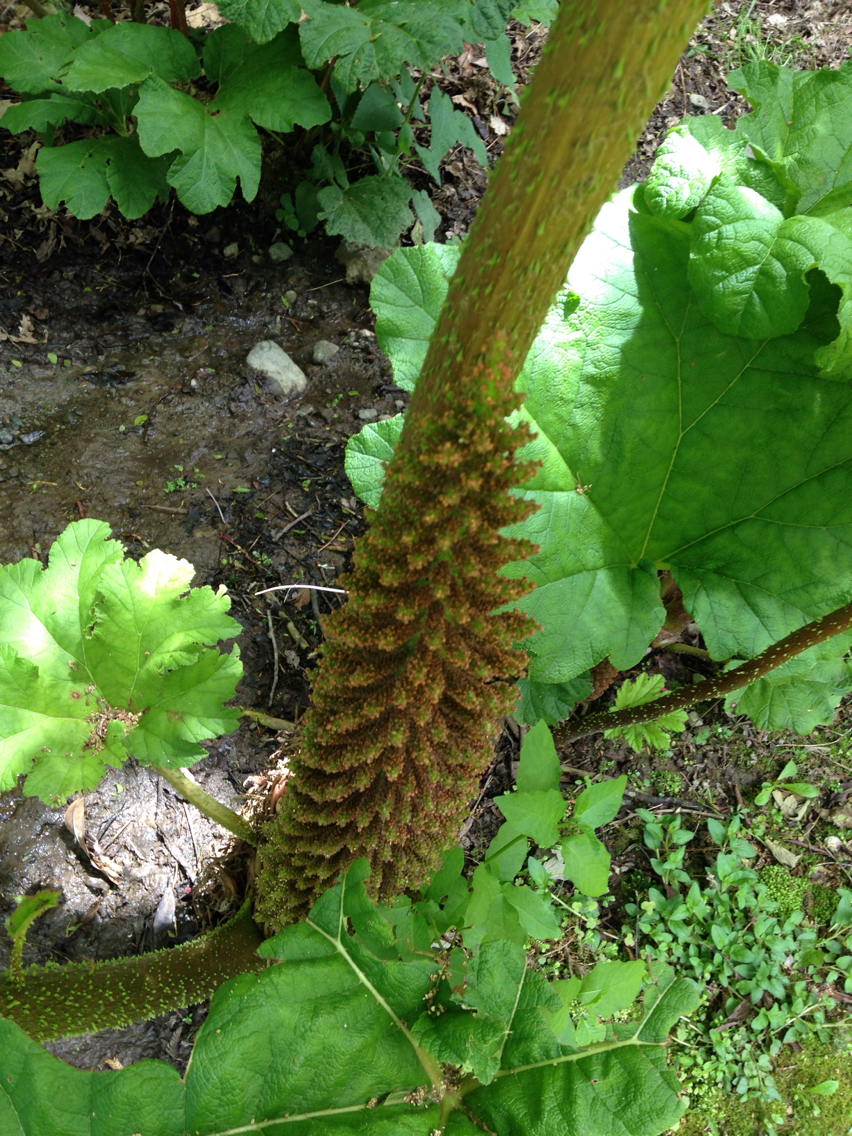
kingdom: Plantae
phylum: Tracheophyta
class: Magnoliopsida
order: Gunnerales
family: Gunneraceae
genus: Gunnera
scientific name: Gunnera tinctoria
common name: Giant-rhubarb
